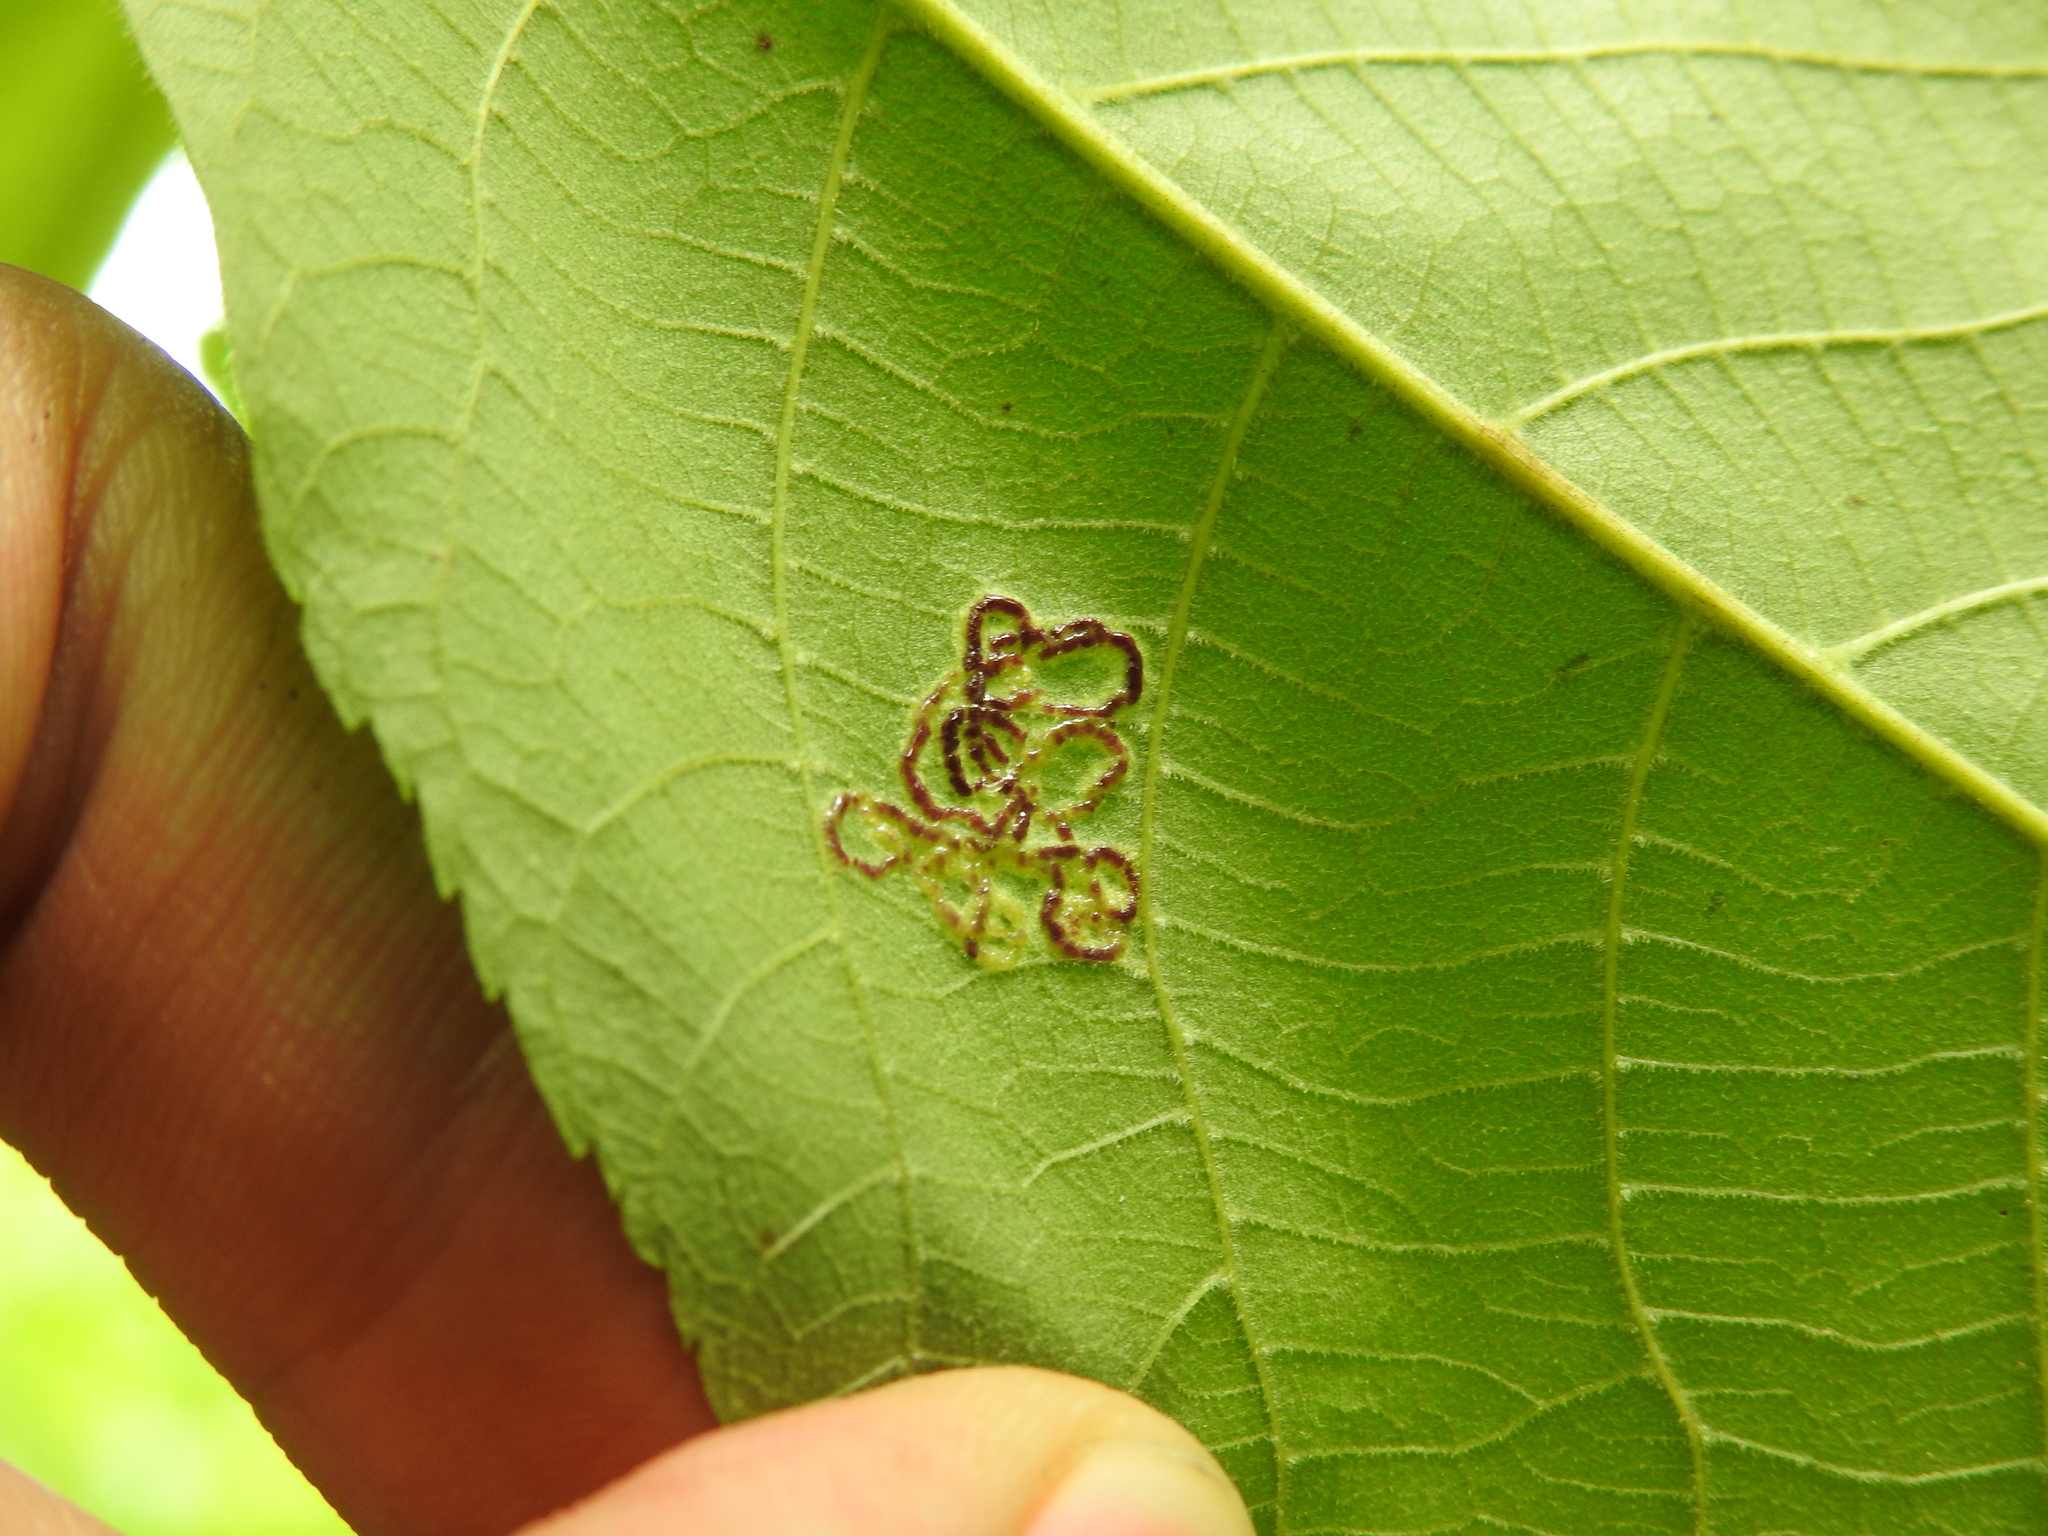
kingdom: Animalia
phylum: Arthropoda
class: Insecta
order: Diptera
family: Cecidomyiidae
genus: Gliaspilota
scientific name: Gliaspilota glutinosa
